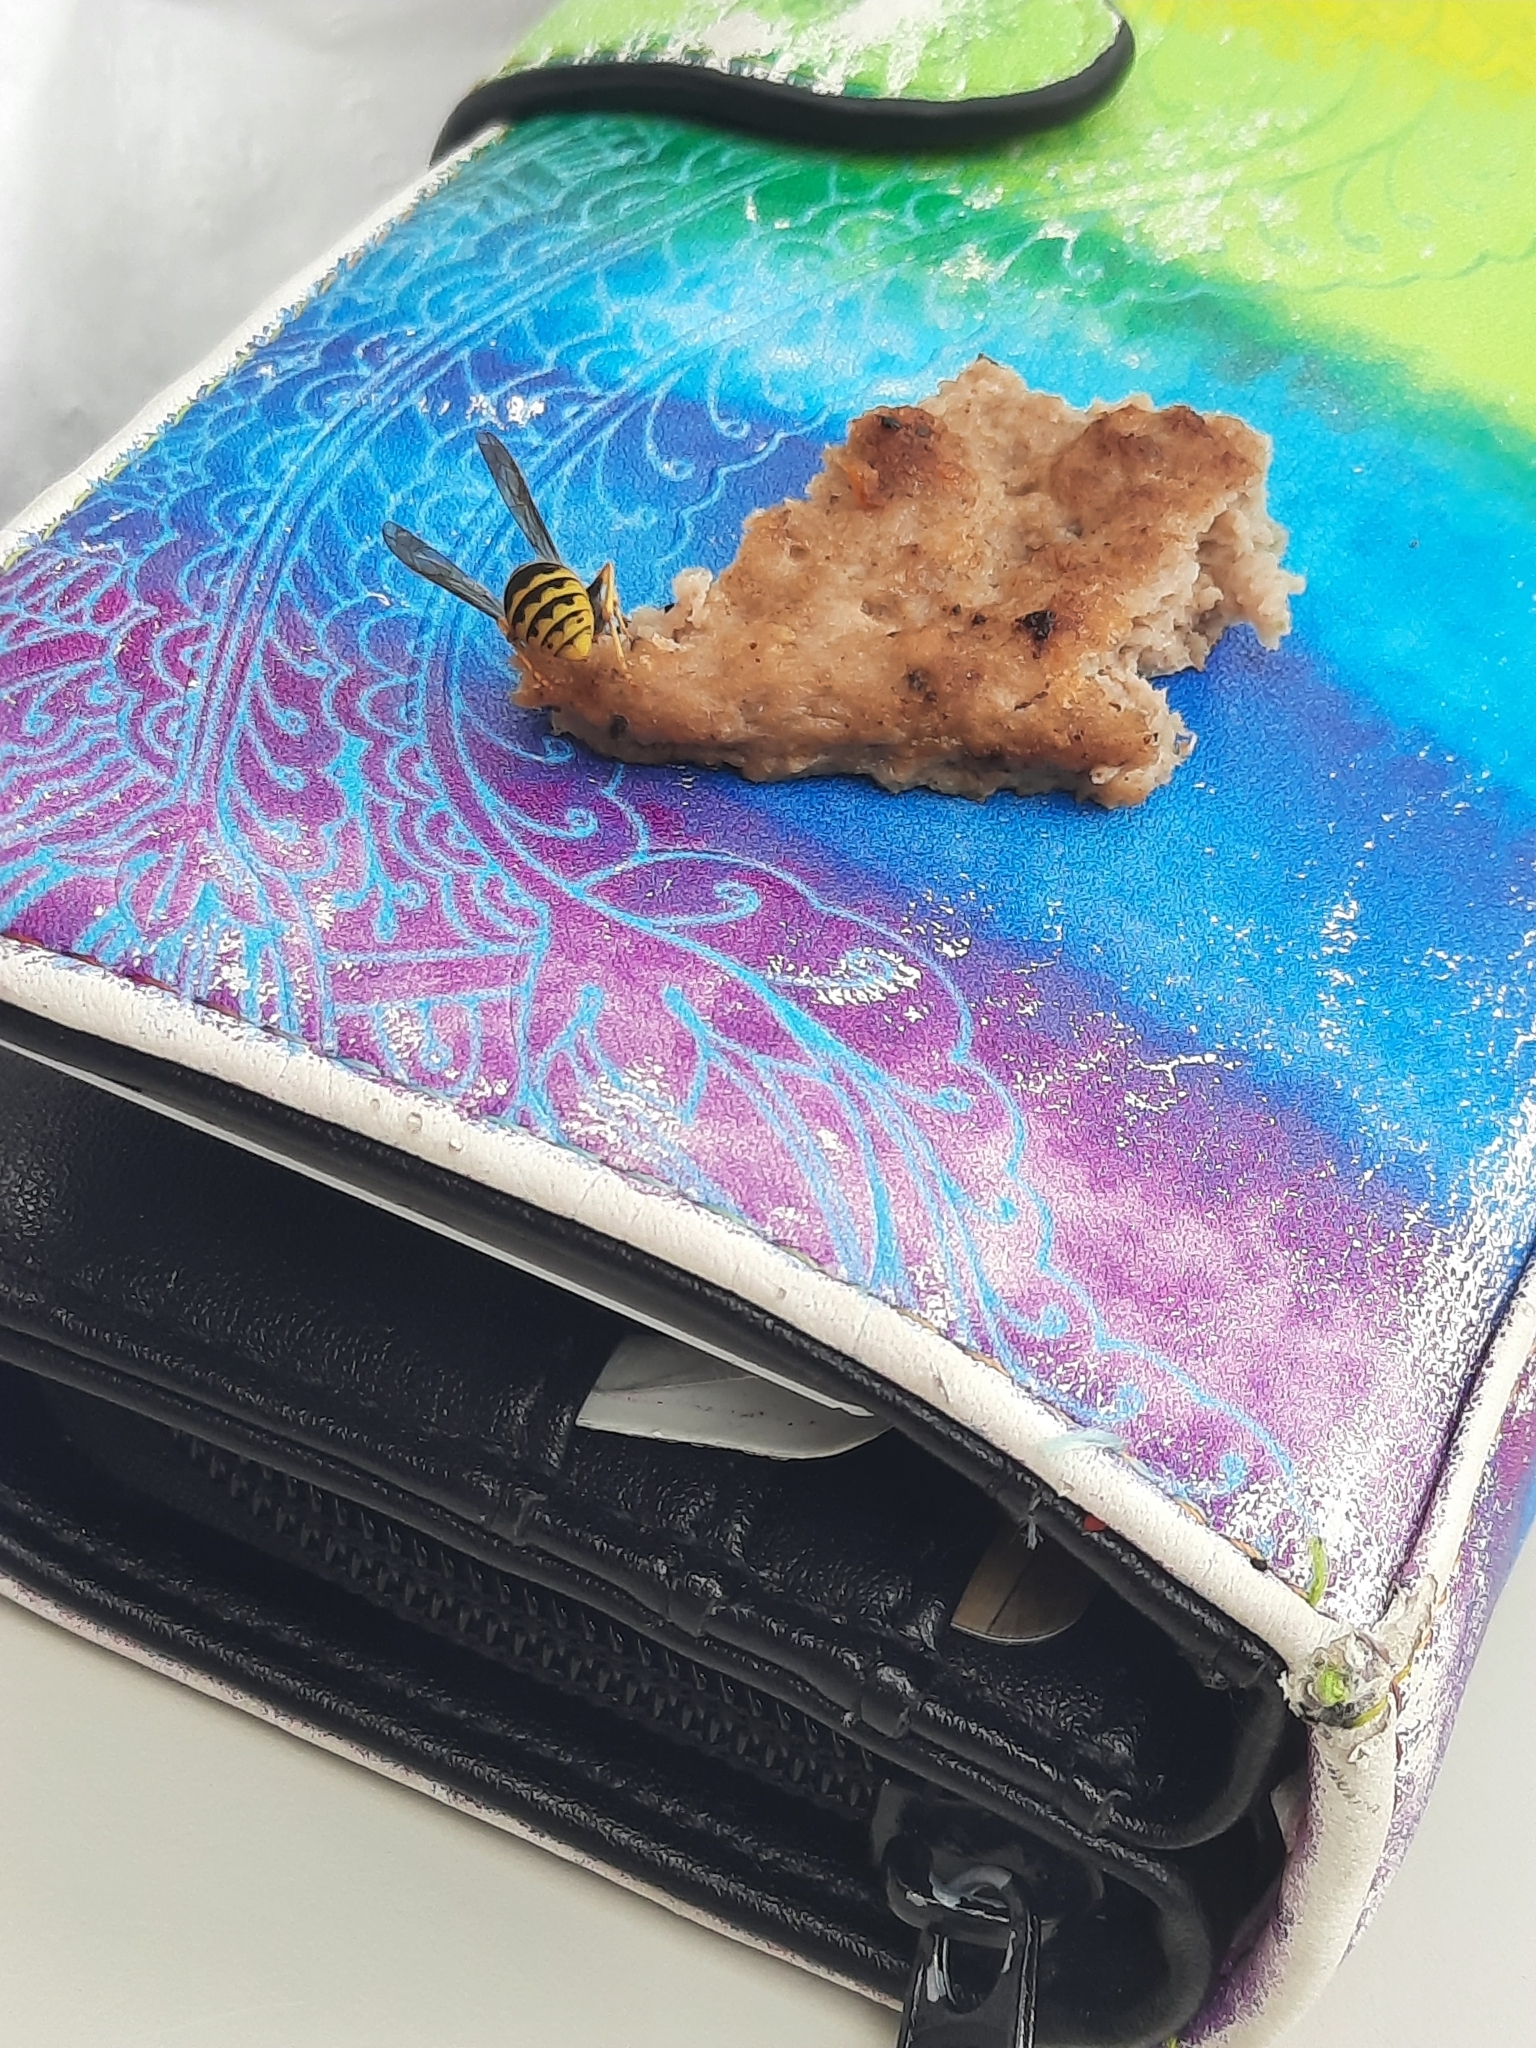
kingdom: Animalia
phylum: Arthropoda
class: Insecta
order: Hymenoptera
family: Vespidae
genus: Vespula
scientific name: Vespula
